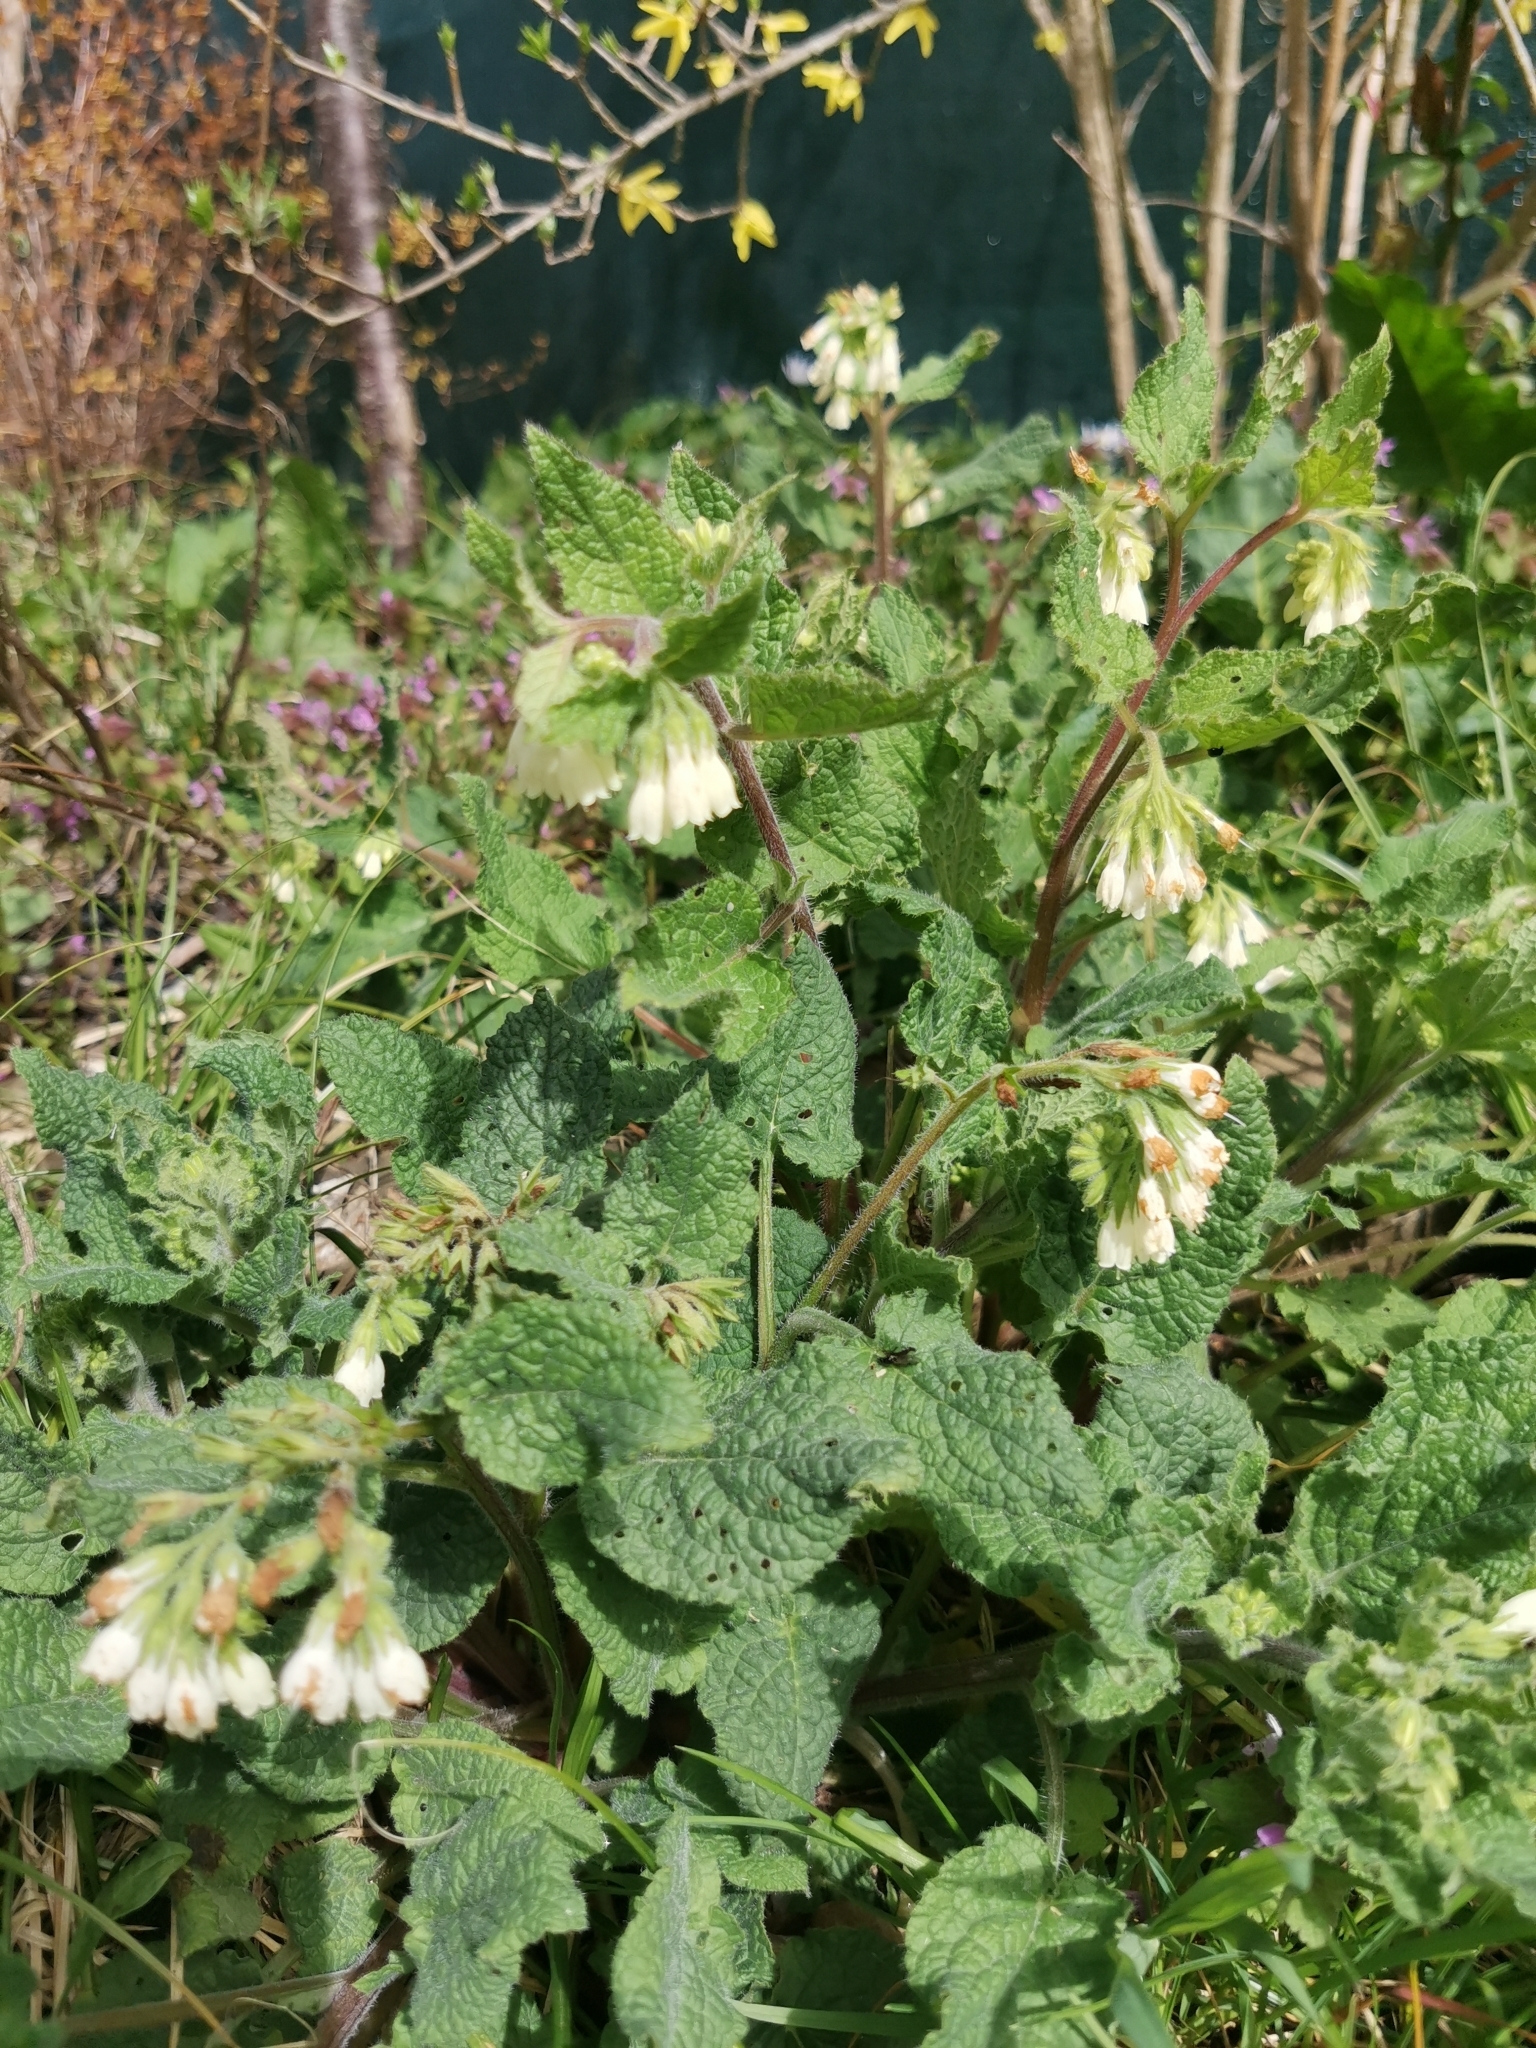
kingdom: Plantae
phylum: Tracheophyta
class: Magnoliopsida
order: Boraginales
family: Boraginaceae
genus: Symphytum
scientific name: Symphytum tauricum
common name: Crimean comfrey
